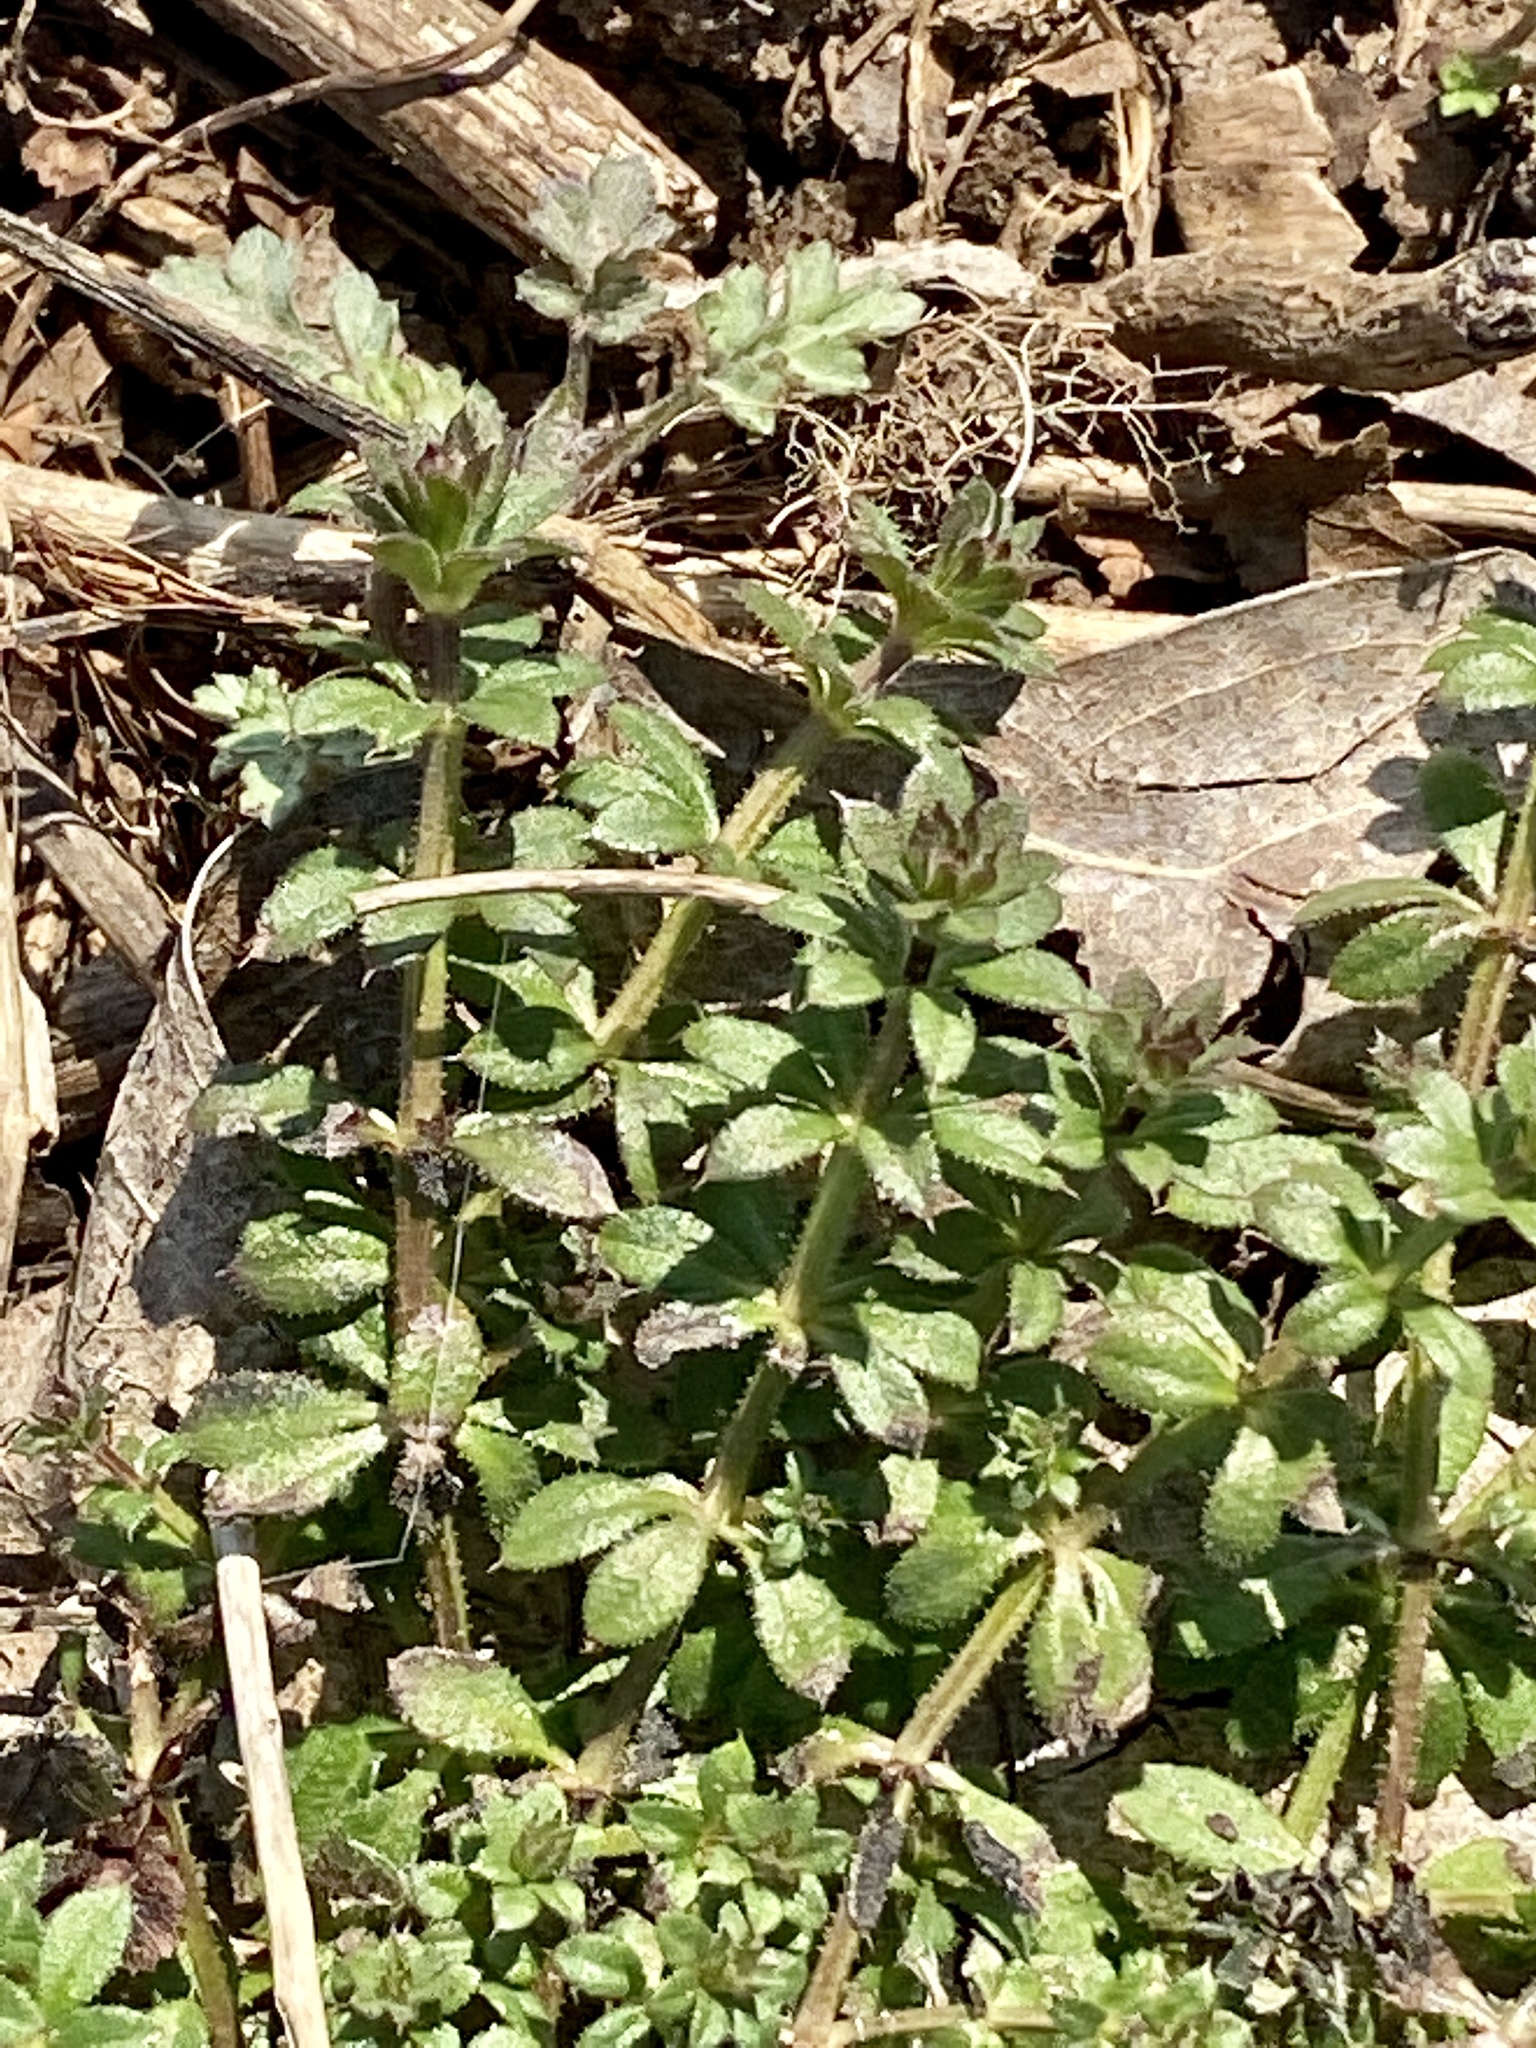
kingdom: Plantae
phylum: Tracheophyta
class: Magnoliopsida
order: Gentianales
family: Rubiaceae
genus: Galium
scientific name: Galium aparine
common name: Cleavers
